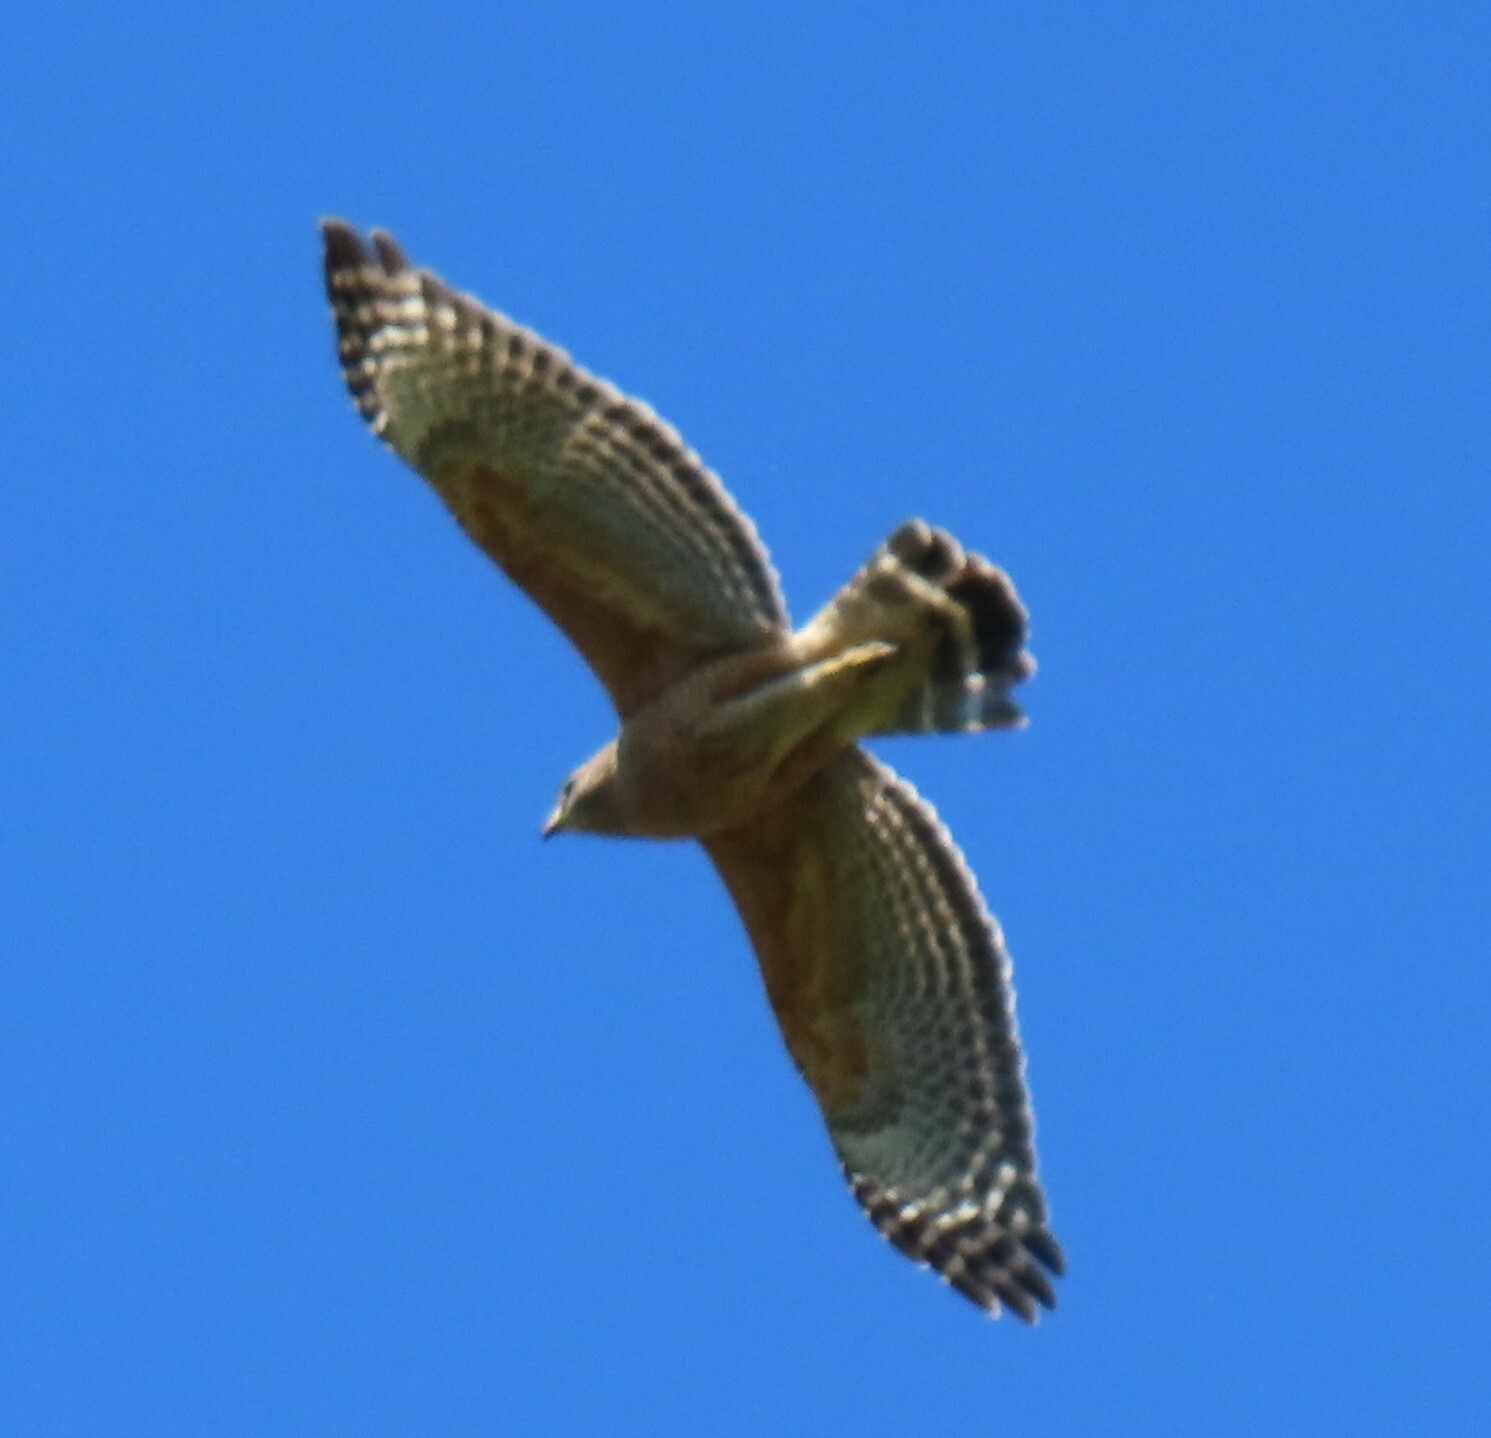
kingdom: Animalia
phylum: Chordata
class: Aves
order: Accipitriformes
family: Accipitridae
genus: Buteo
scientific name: Buteo lineatus
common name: Red-shouldered hawk
